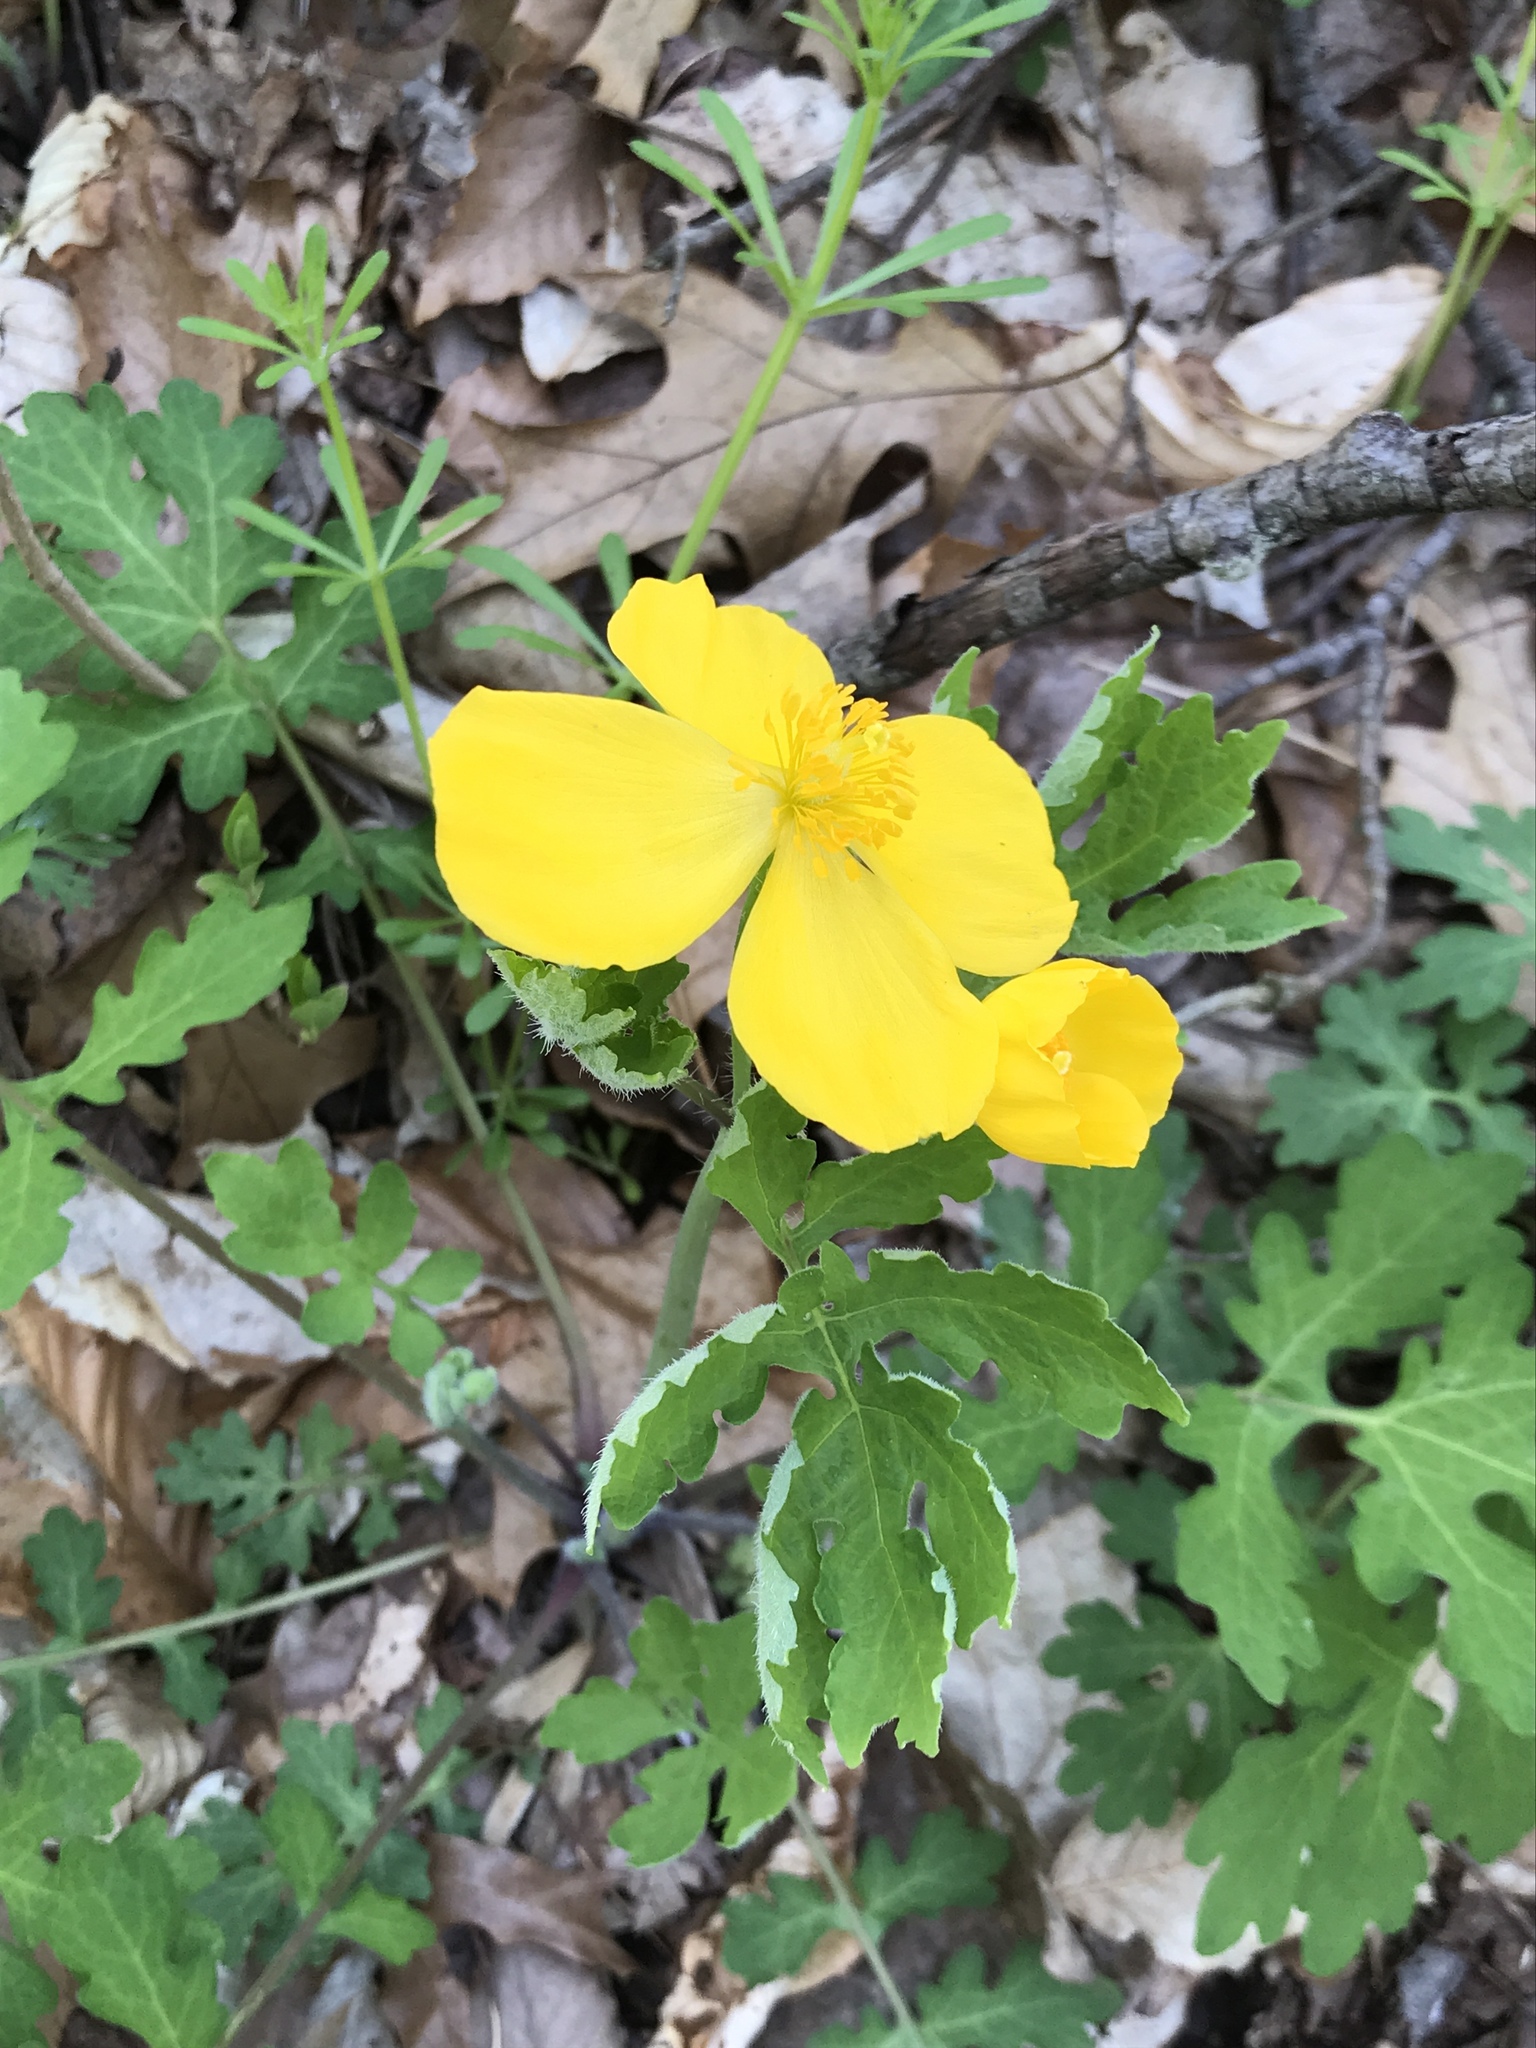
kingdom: Plantae
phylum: Tracheophyta
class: Magnoliopsida
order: Ranunculales
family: Papaveraceae
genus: Stylophorum
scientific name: Stylophorum diphyllum
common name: Celandine poppy
